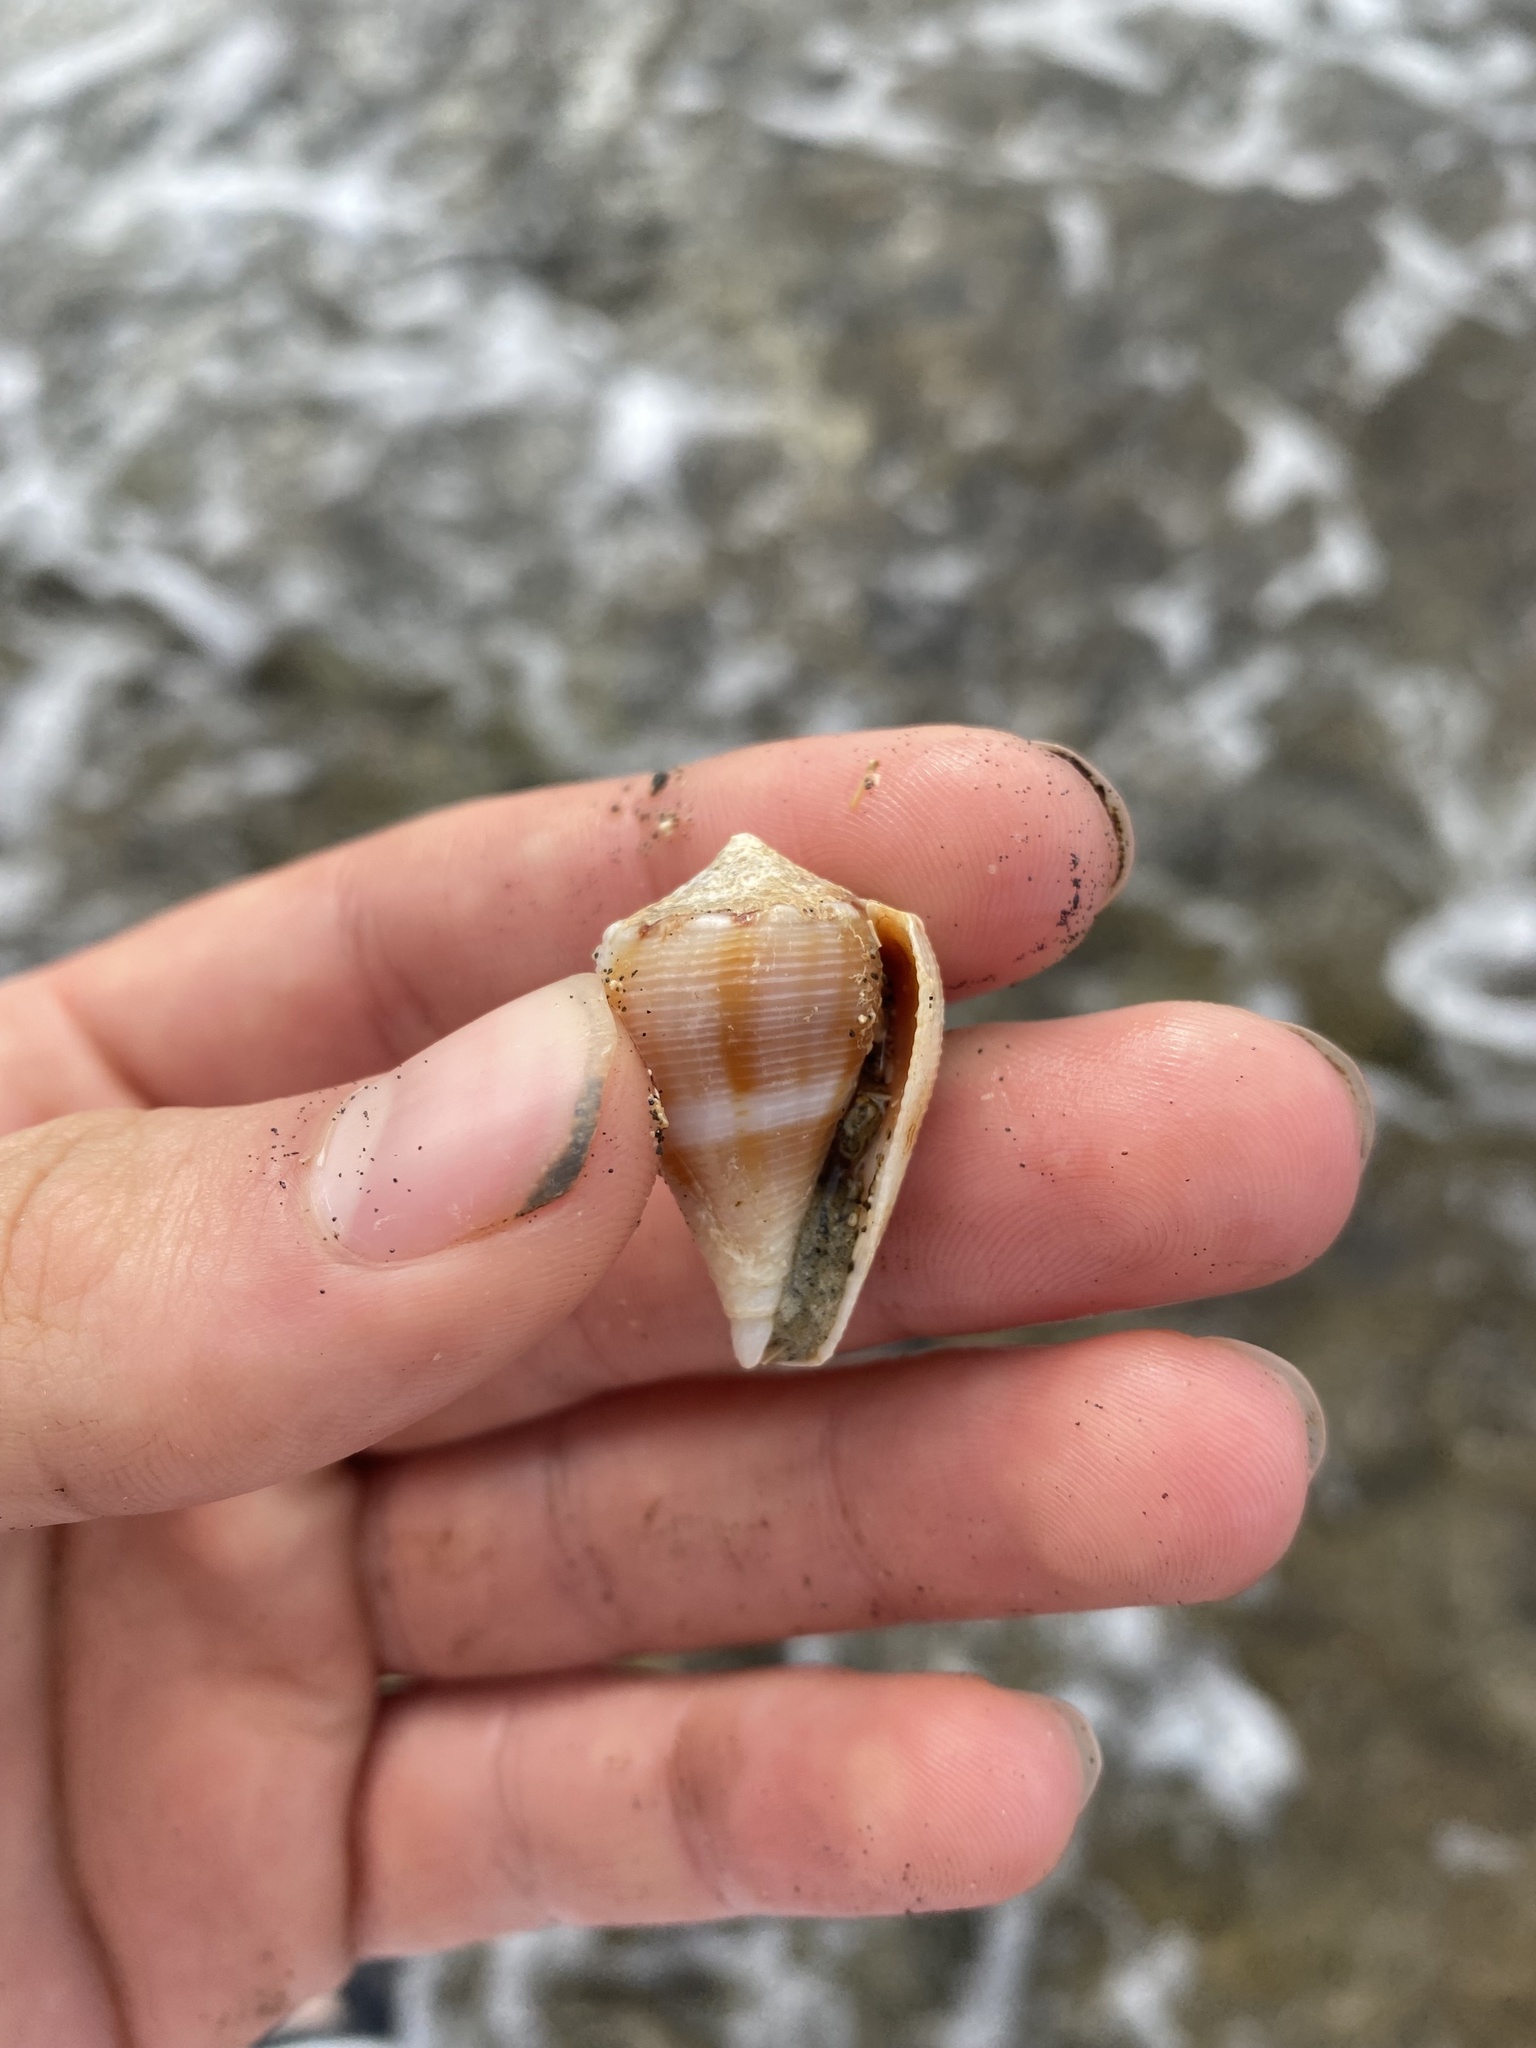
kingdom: Animalia
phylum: Mollusca
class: Gastropoda
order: Neogastropoda
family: Conidae
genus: Conus
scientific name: Conus mus
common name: Mouse cone
